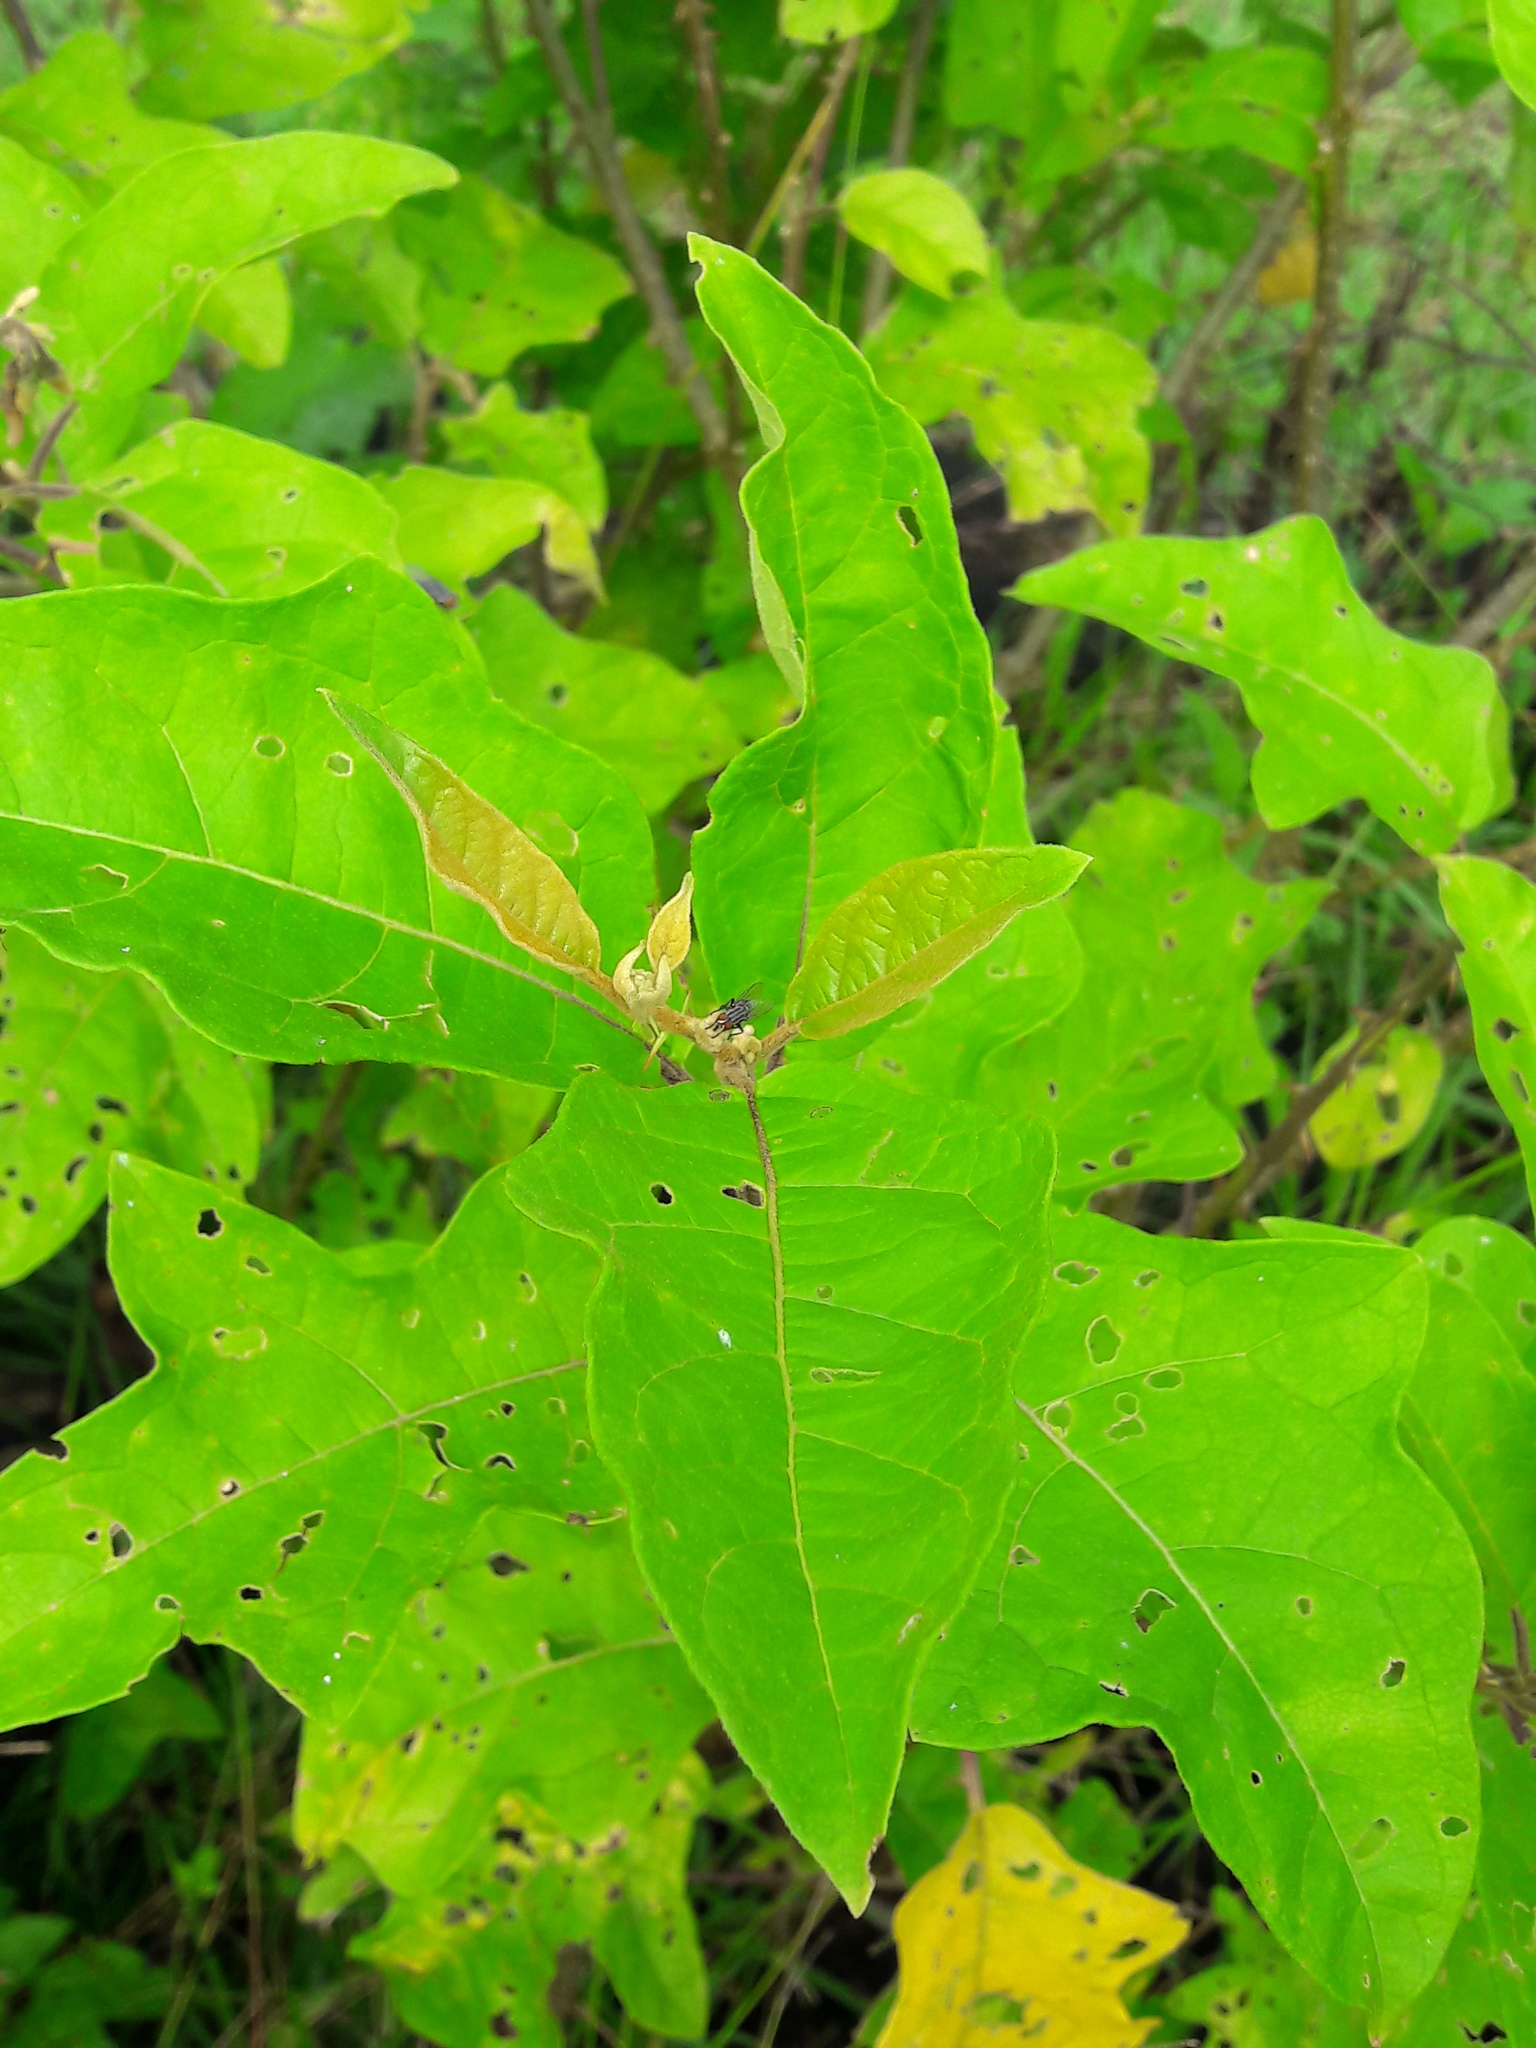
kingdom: Plantae
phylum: Tracheophyta
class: Magnoliopsida
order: Solanales
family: Solanaceae
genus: Solanum
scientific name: Solanum subinerme
